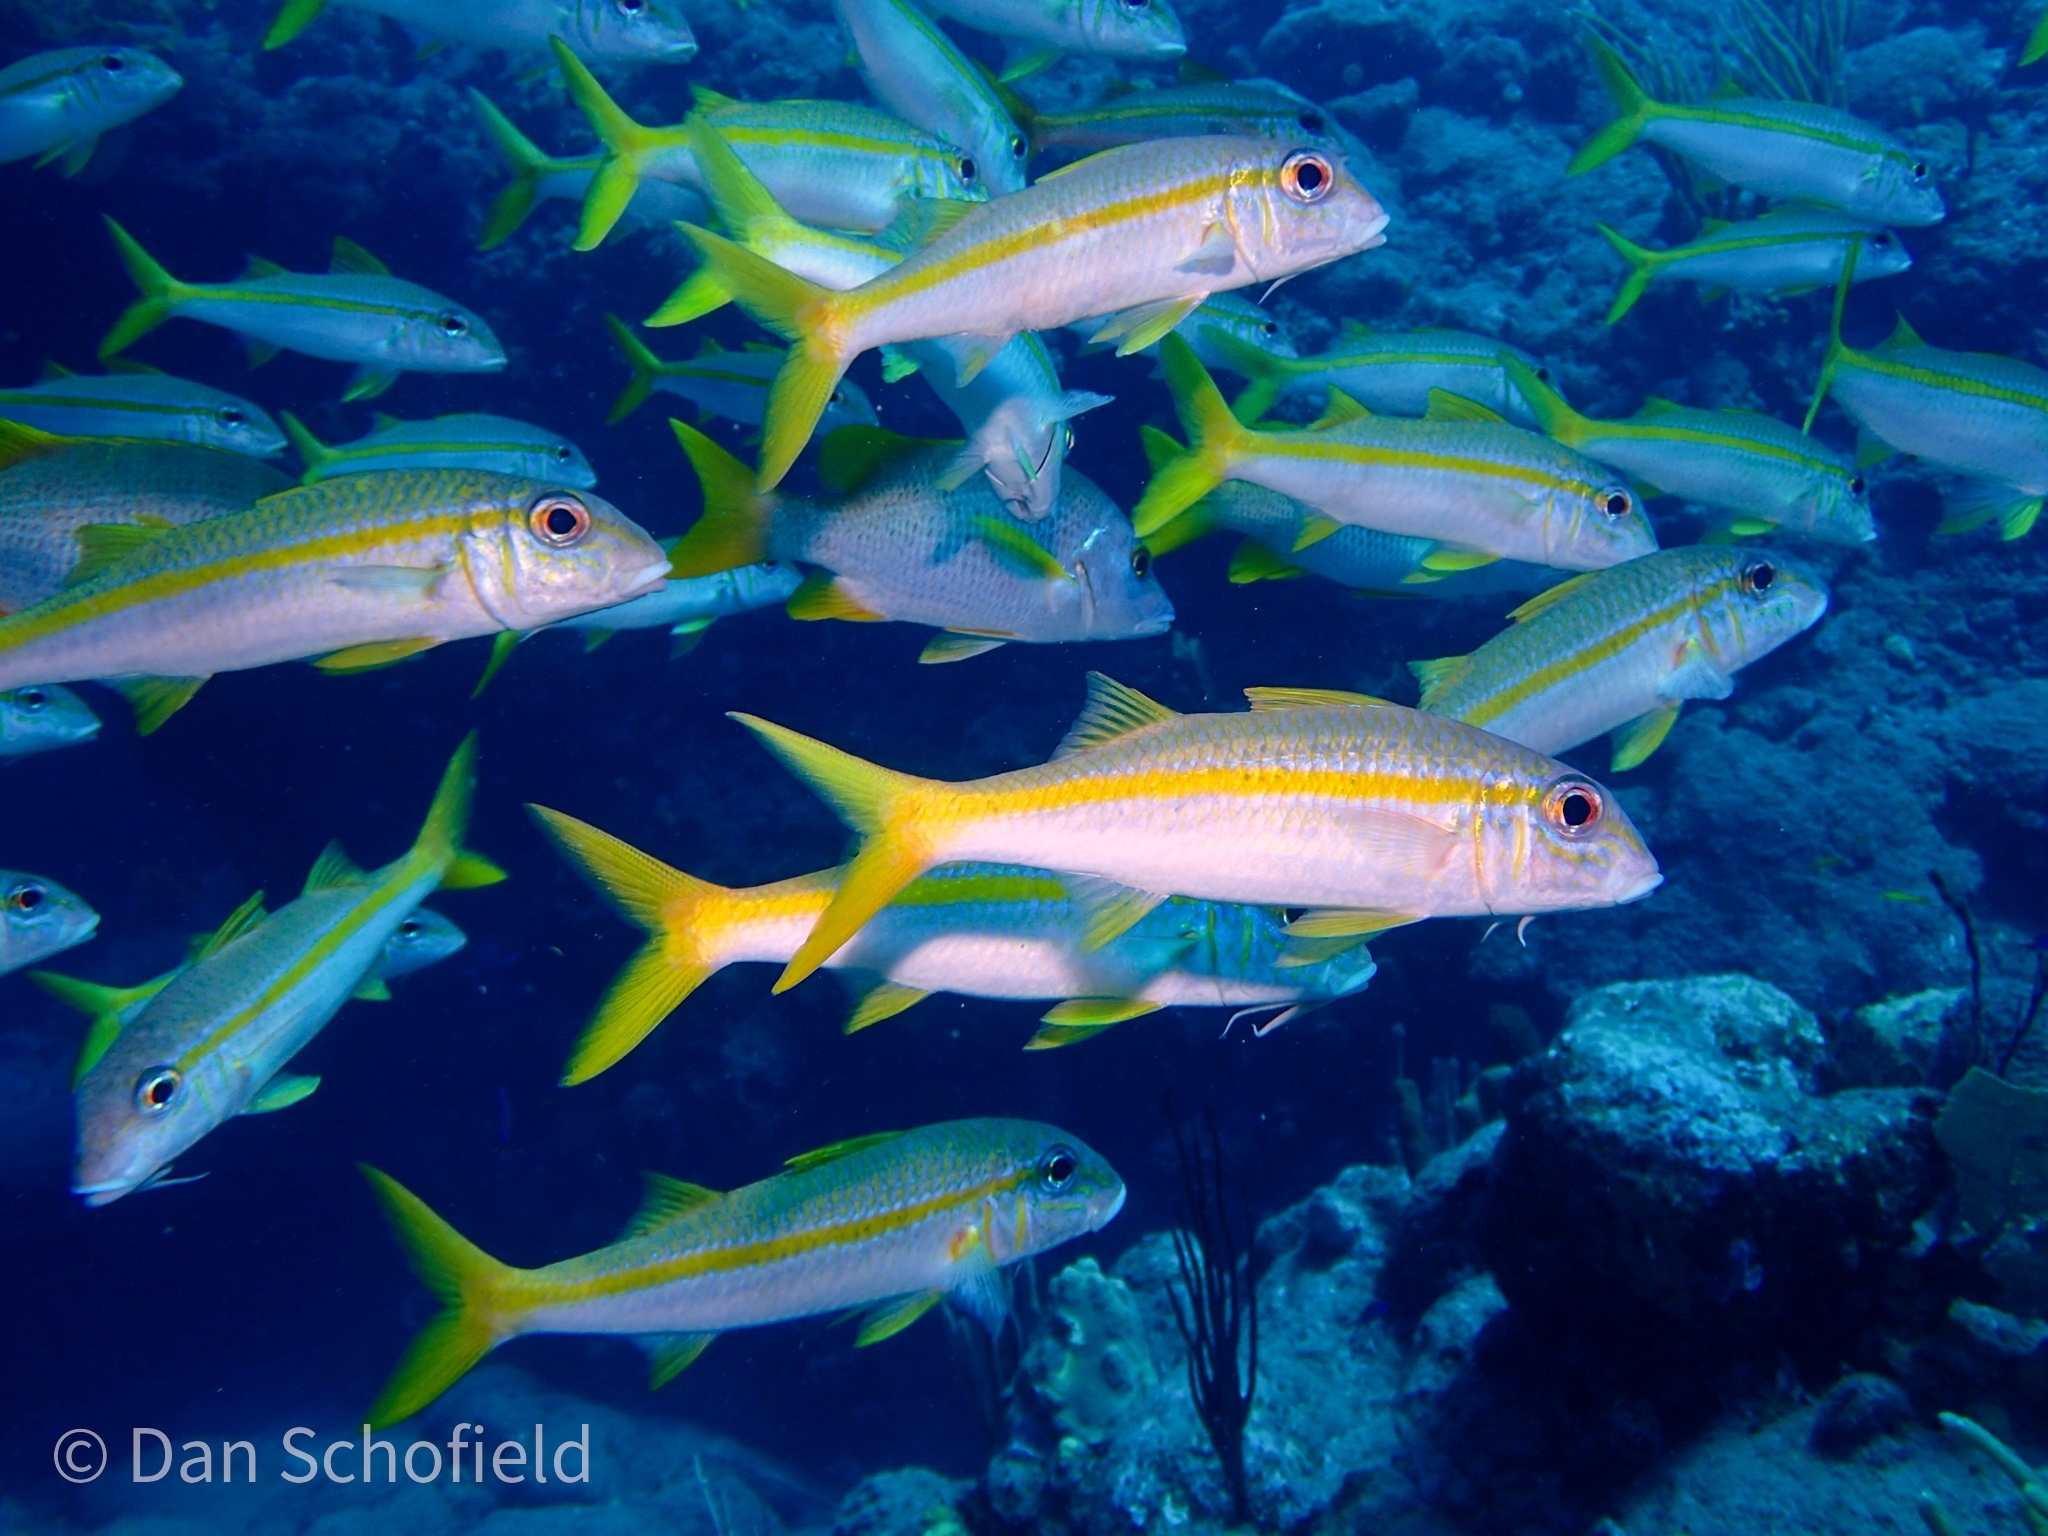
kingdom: Animalia
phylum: Chordata
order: Perciformes
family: Mullidae
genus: Mulloidichthys
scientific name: Mulloidichthys martinicus
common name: Yellow goatfish
